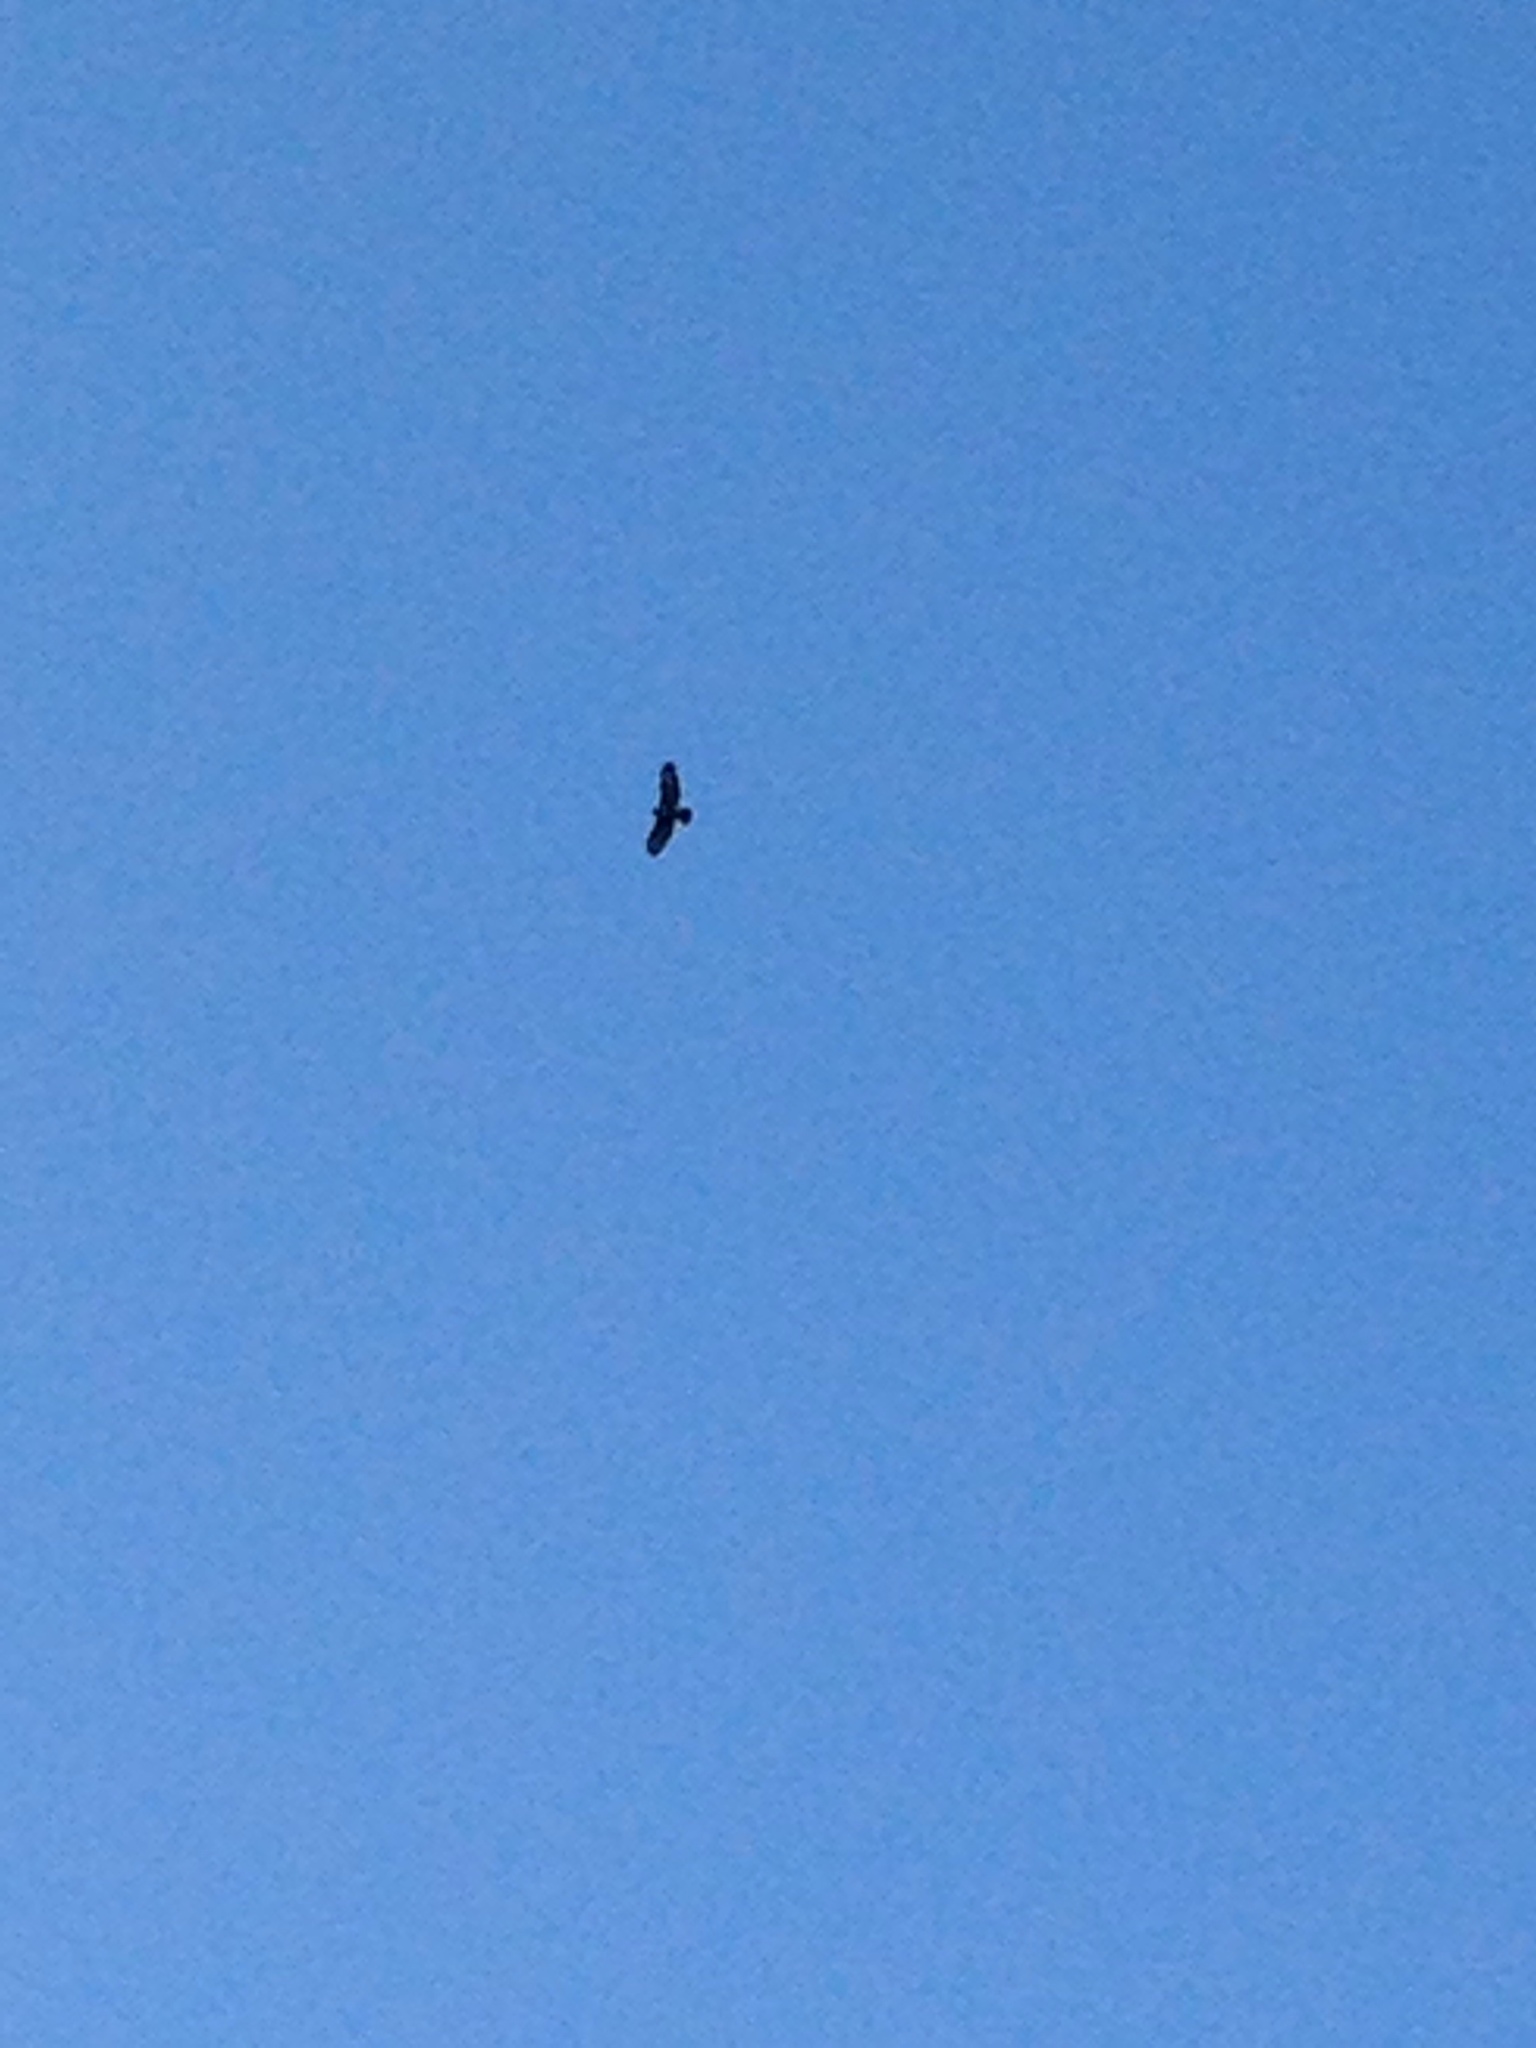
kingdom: Animalia
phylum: Chordata
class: Aves
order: Accipitriformes
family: Accipitridae
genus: Buteo
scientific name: Buteo buteo
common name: Common buzzard
